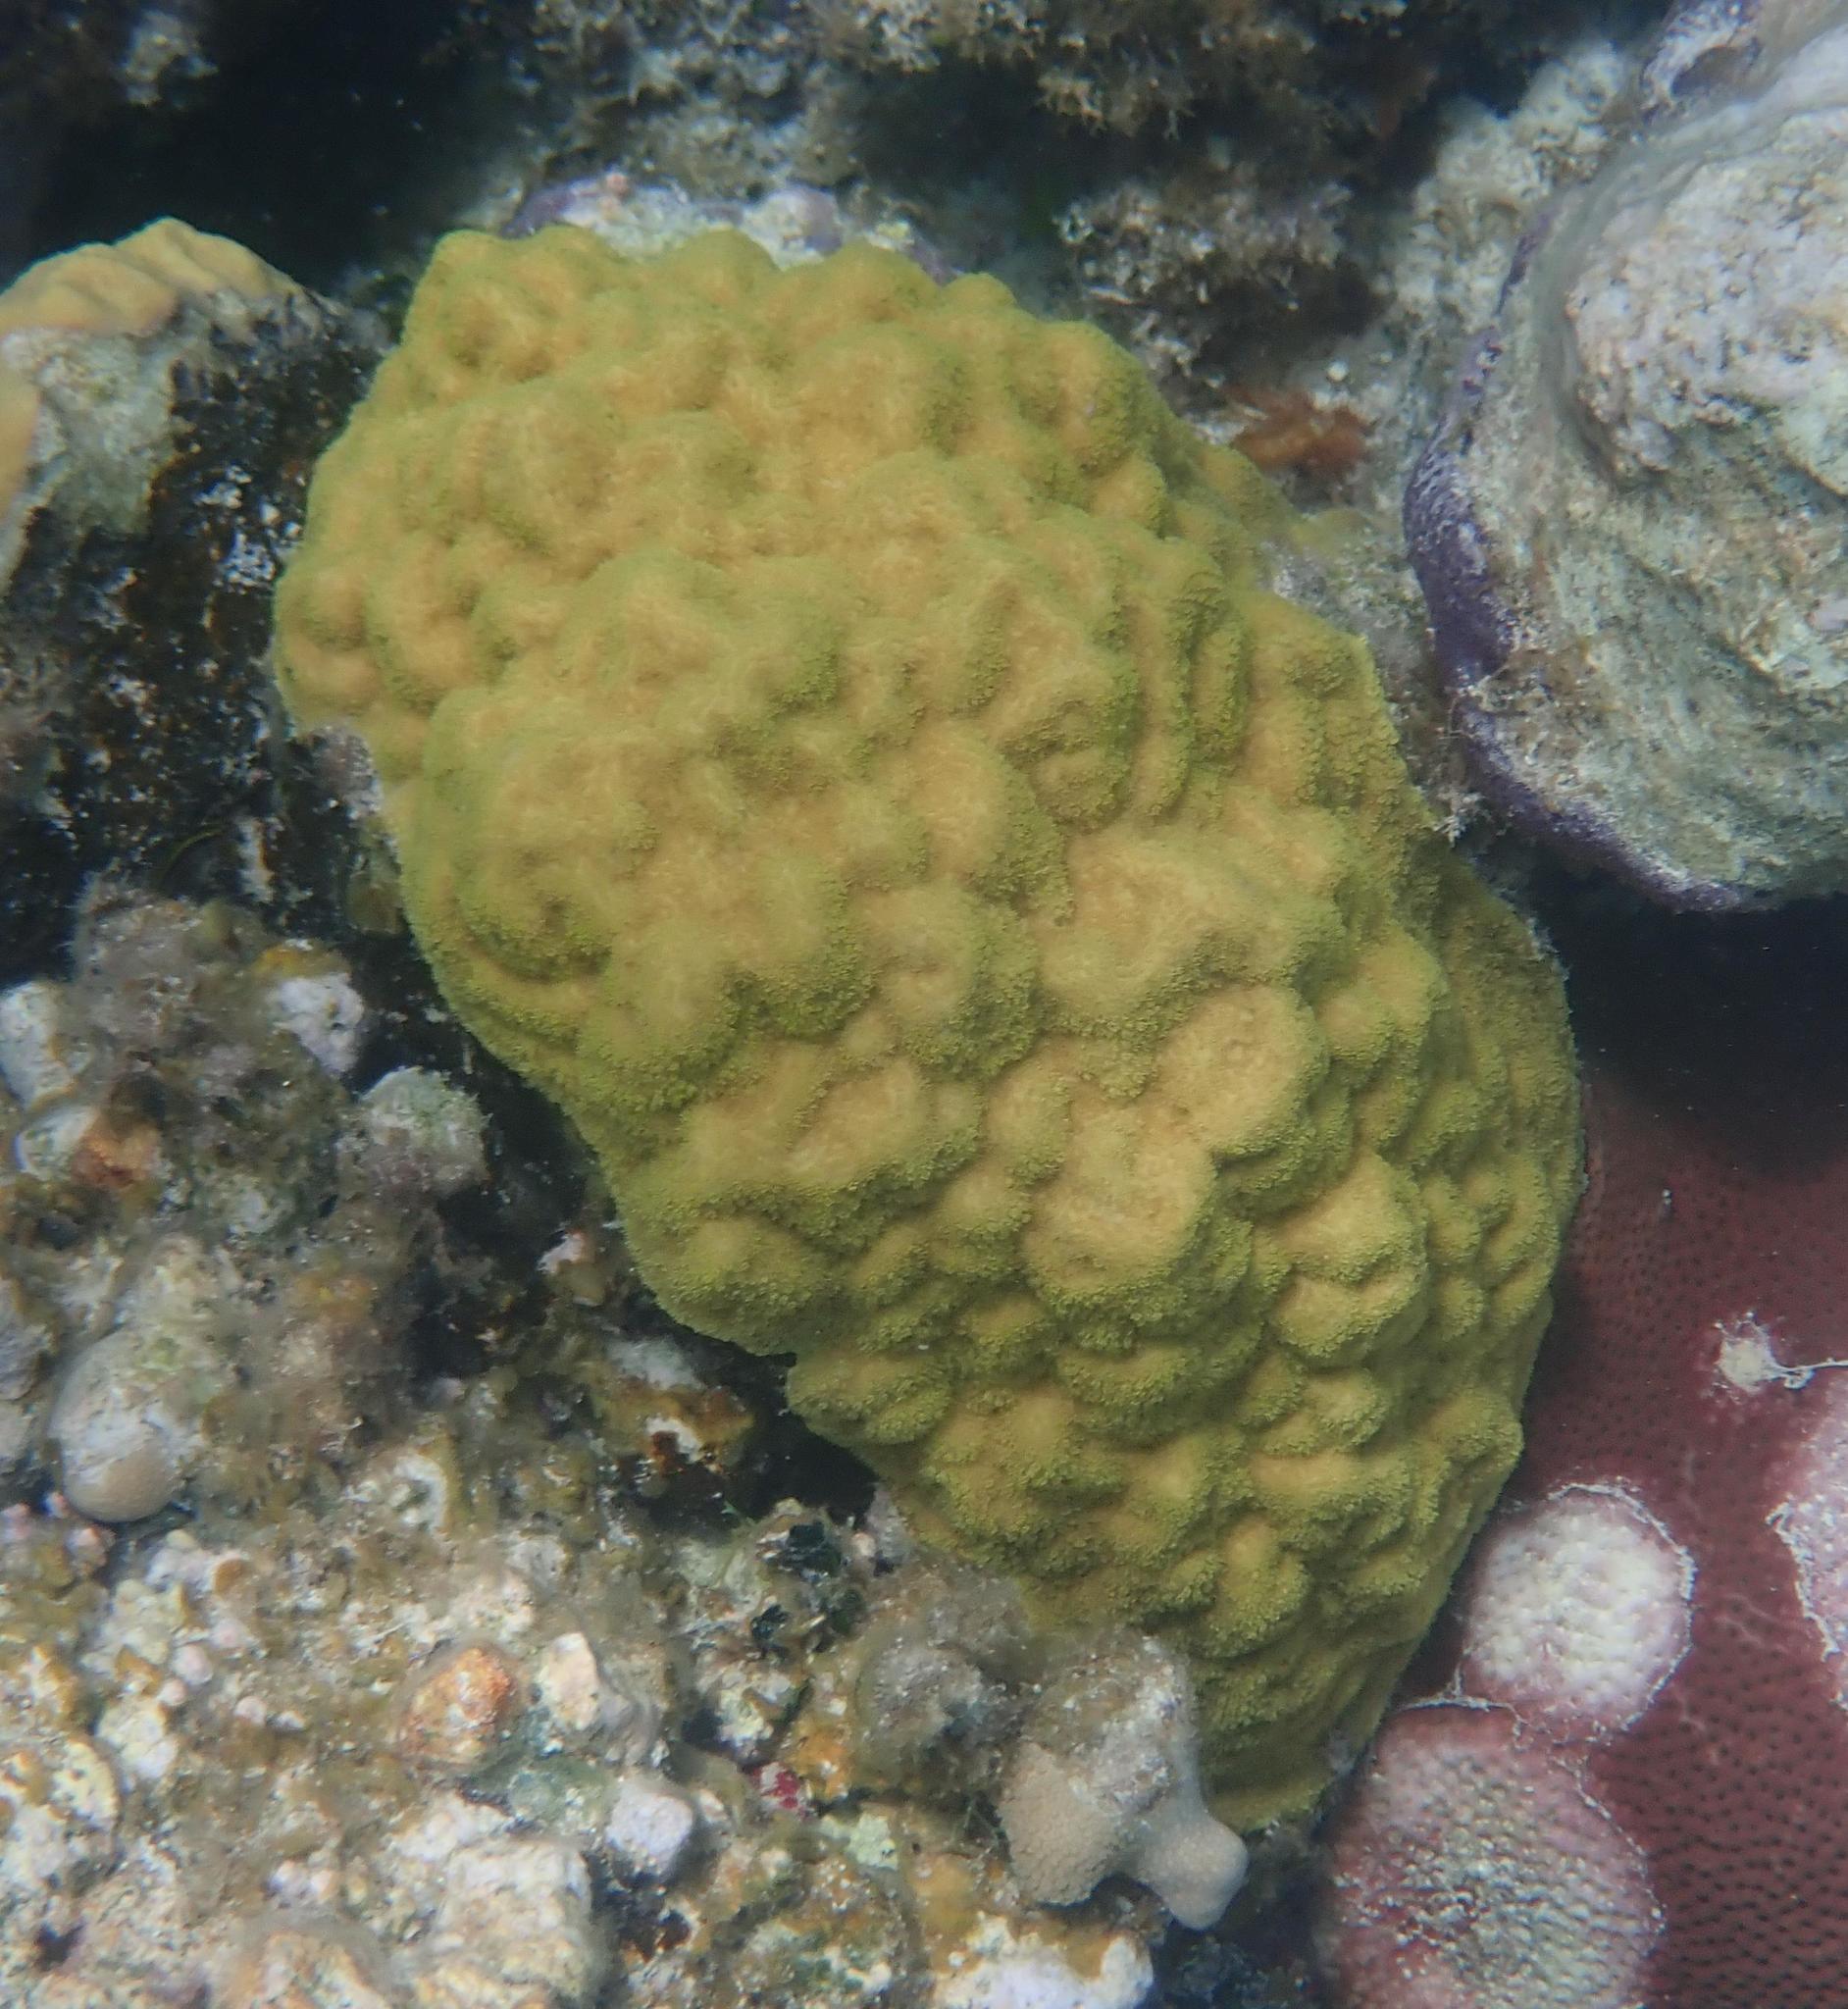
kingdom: Animalia
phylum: Cnidaria
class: Anthozoa
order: Scleractinia
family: Poritidae
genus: Porites
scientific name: Porites astreoides
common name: Mustard hill coral
